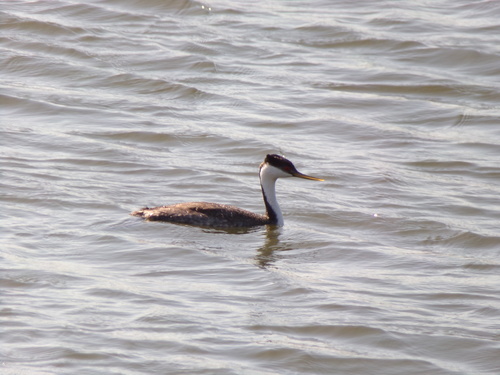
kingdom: Animalia
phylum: Chordata
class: Aves
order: Podicipediformes
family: Podicipedidae
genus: Aechmophorus
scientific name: Aechmophorus occidentalis
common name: Western grebe
